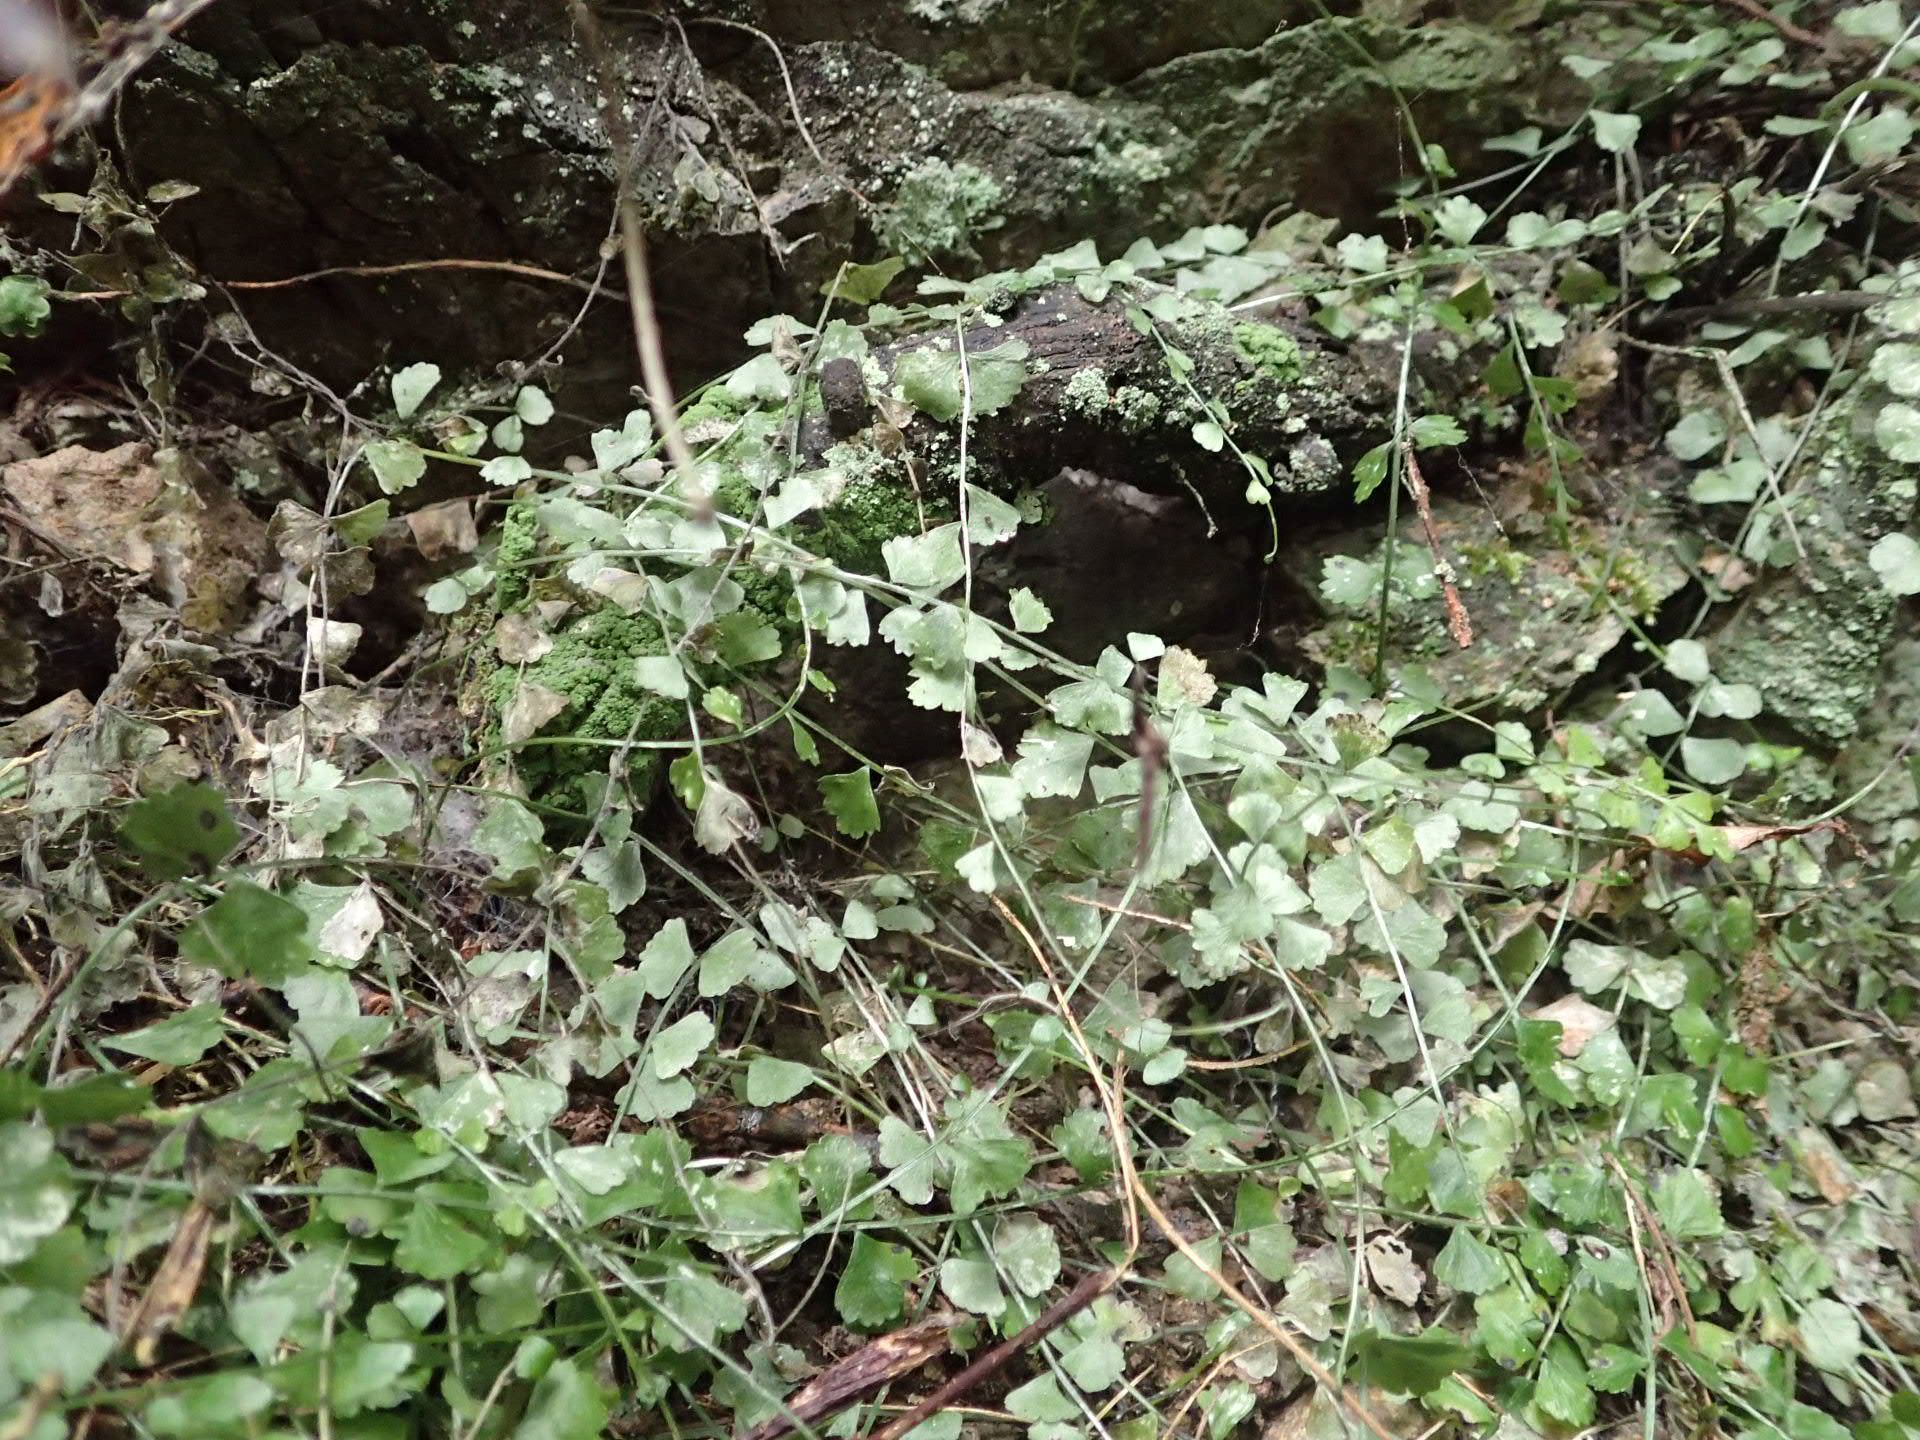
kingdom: Plantae
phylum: Tracheophyta
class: Polypodiopsida
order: Polypodiales
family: Aspleniaceae
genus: Asplenium
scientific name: Asplenium flabellifolium
